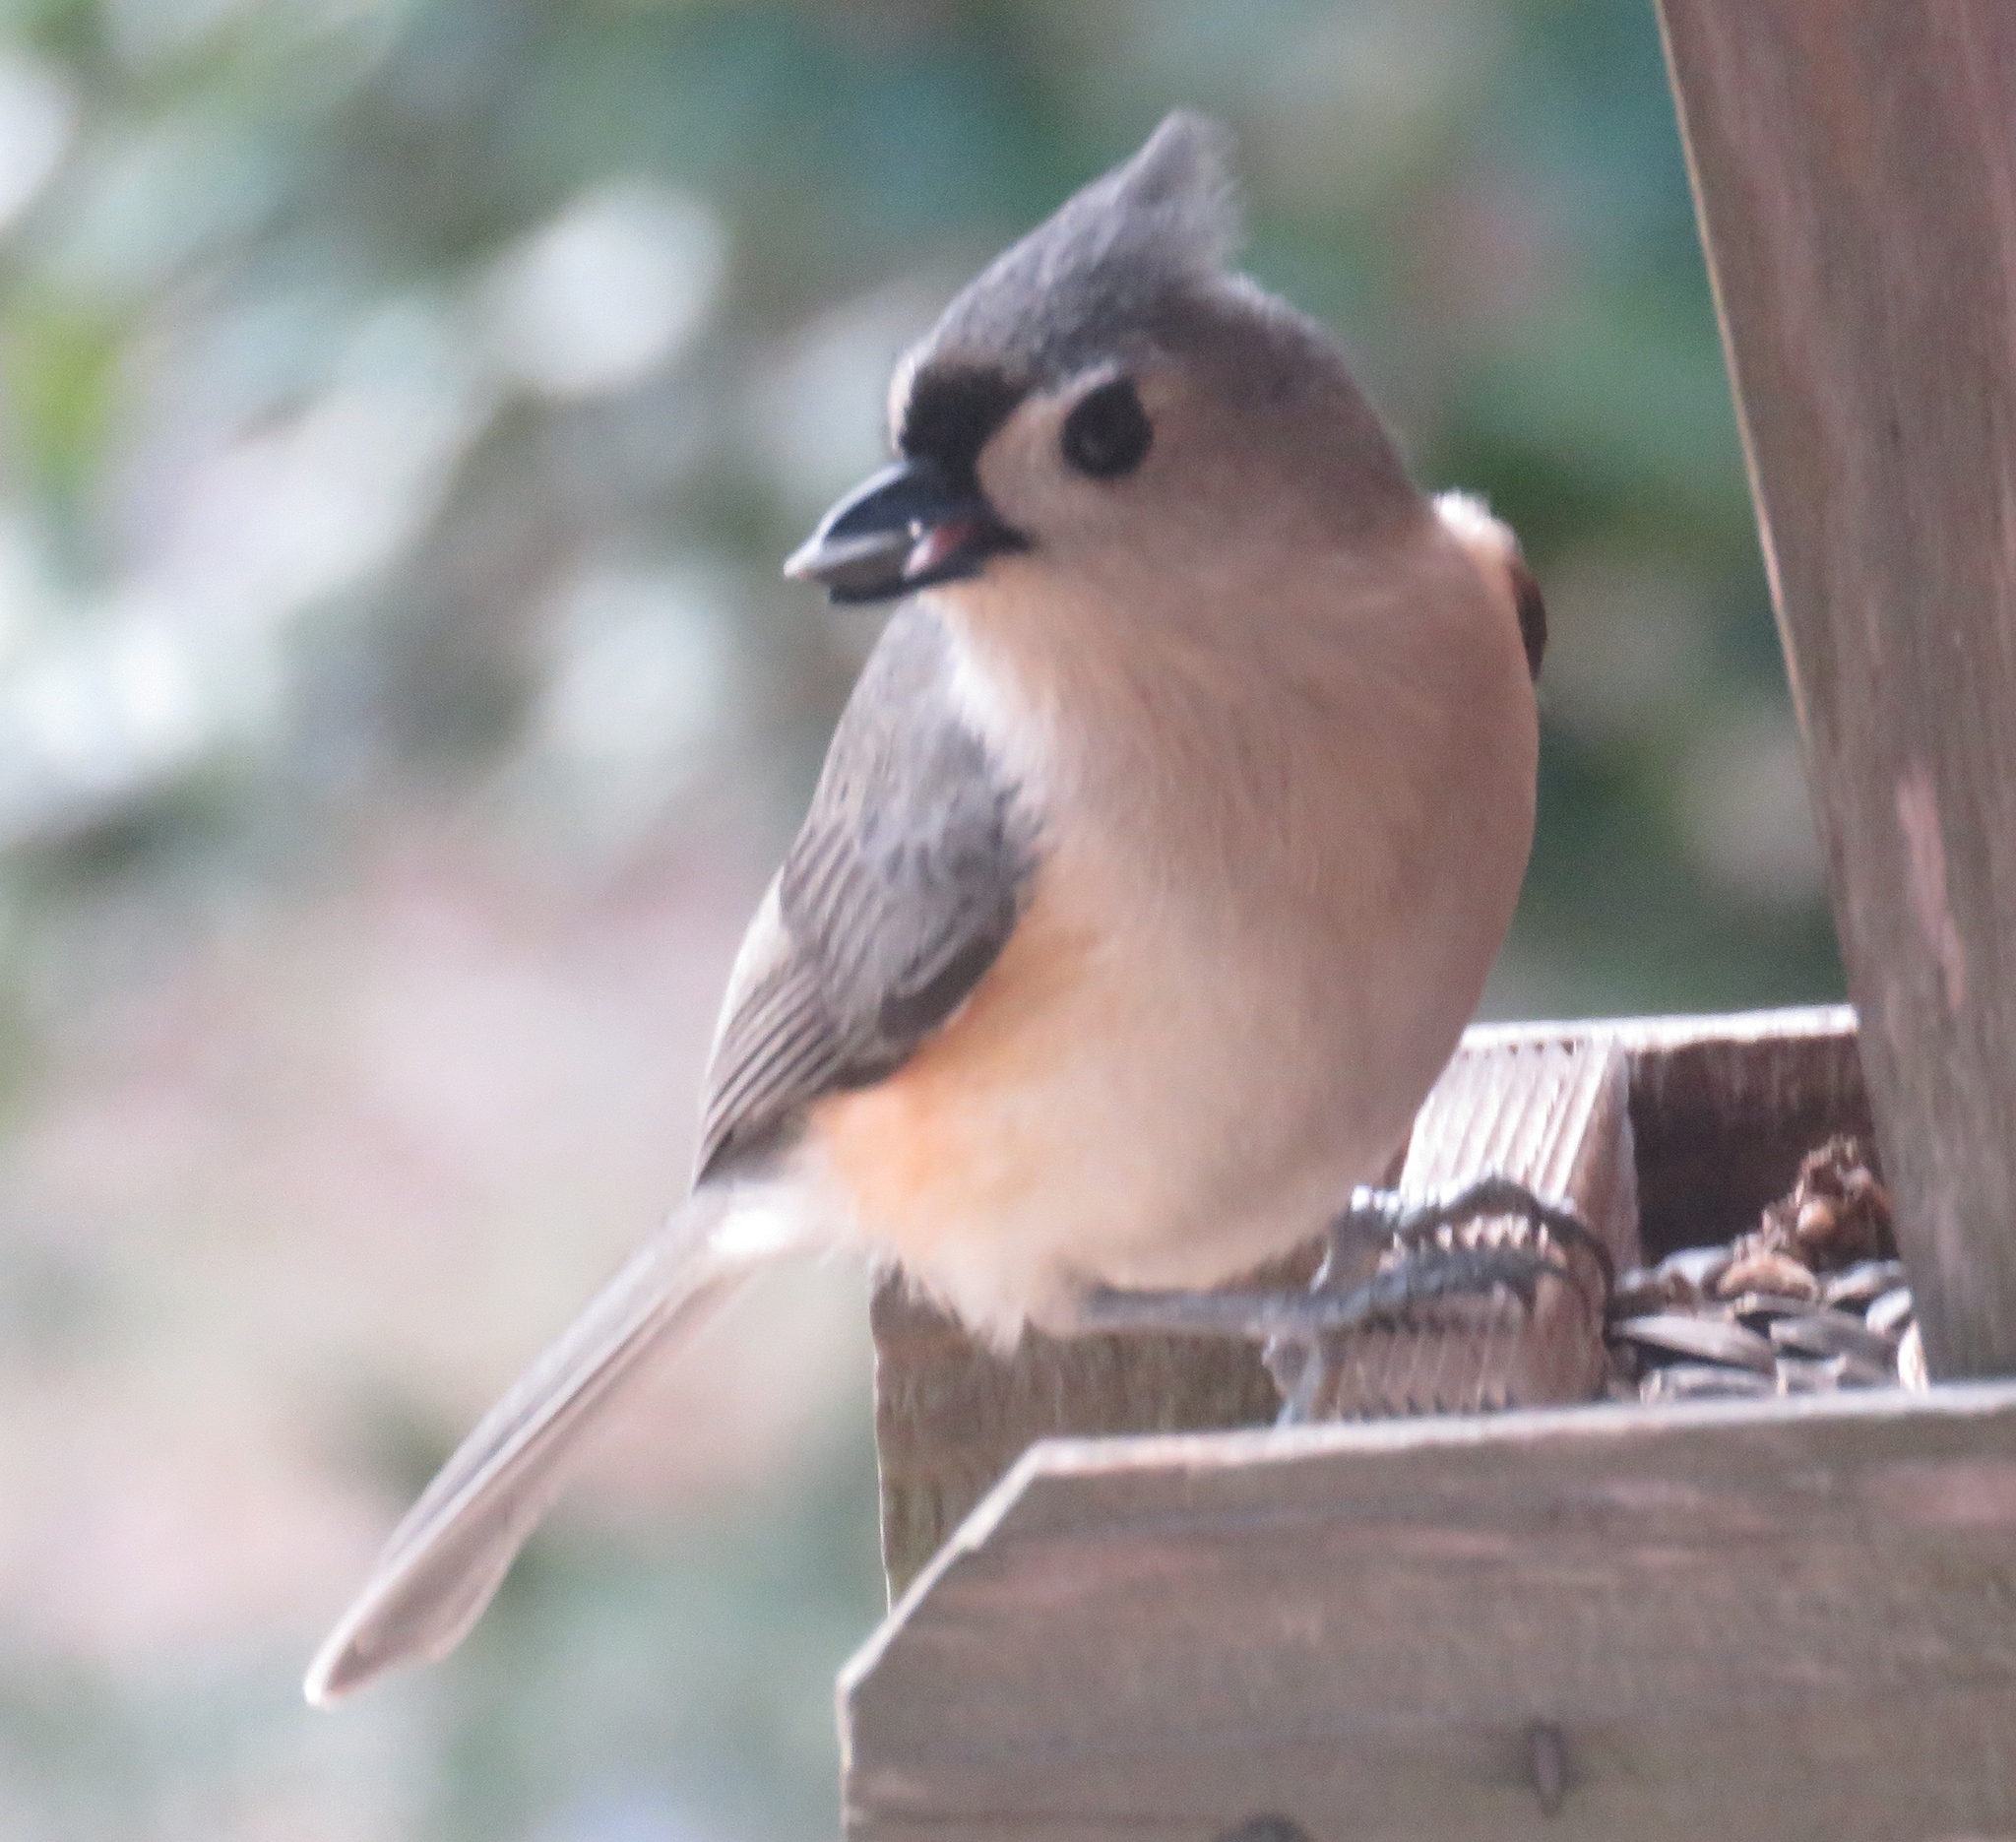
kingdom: Animalia
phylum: Chordata
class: Aves
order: Passeriformes
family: Paridae
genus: Baeolophus
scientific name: Baeolophus bicolor
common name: Tufted titmouse
